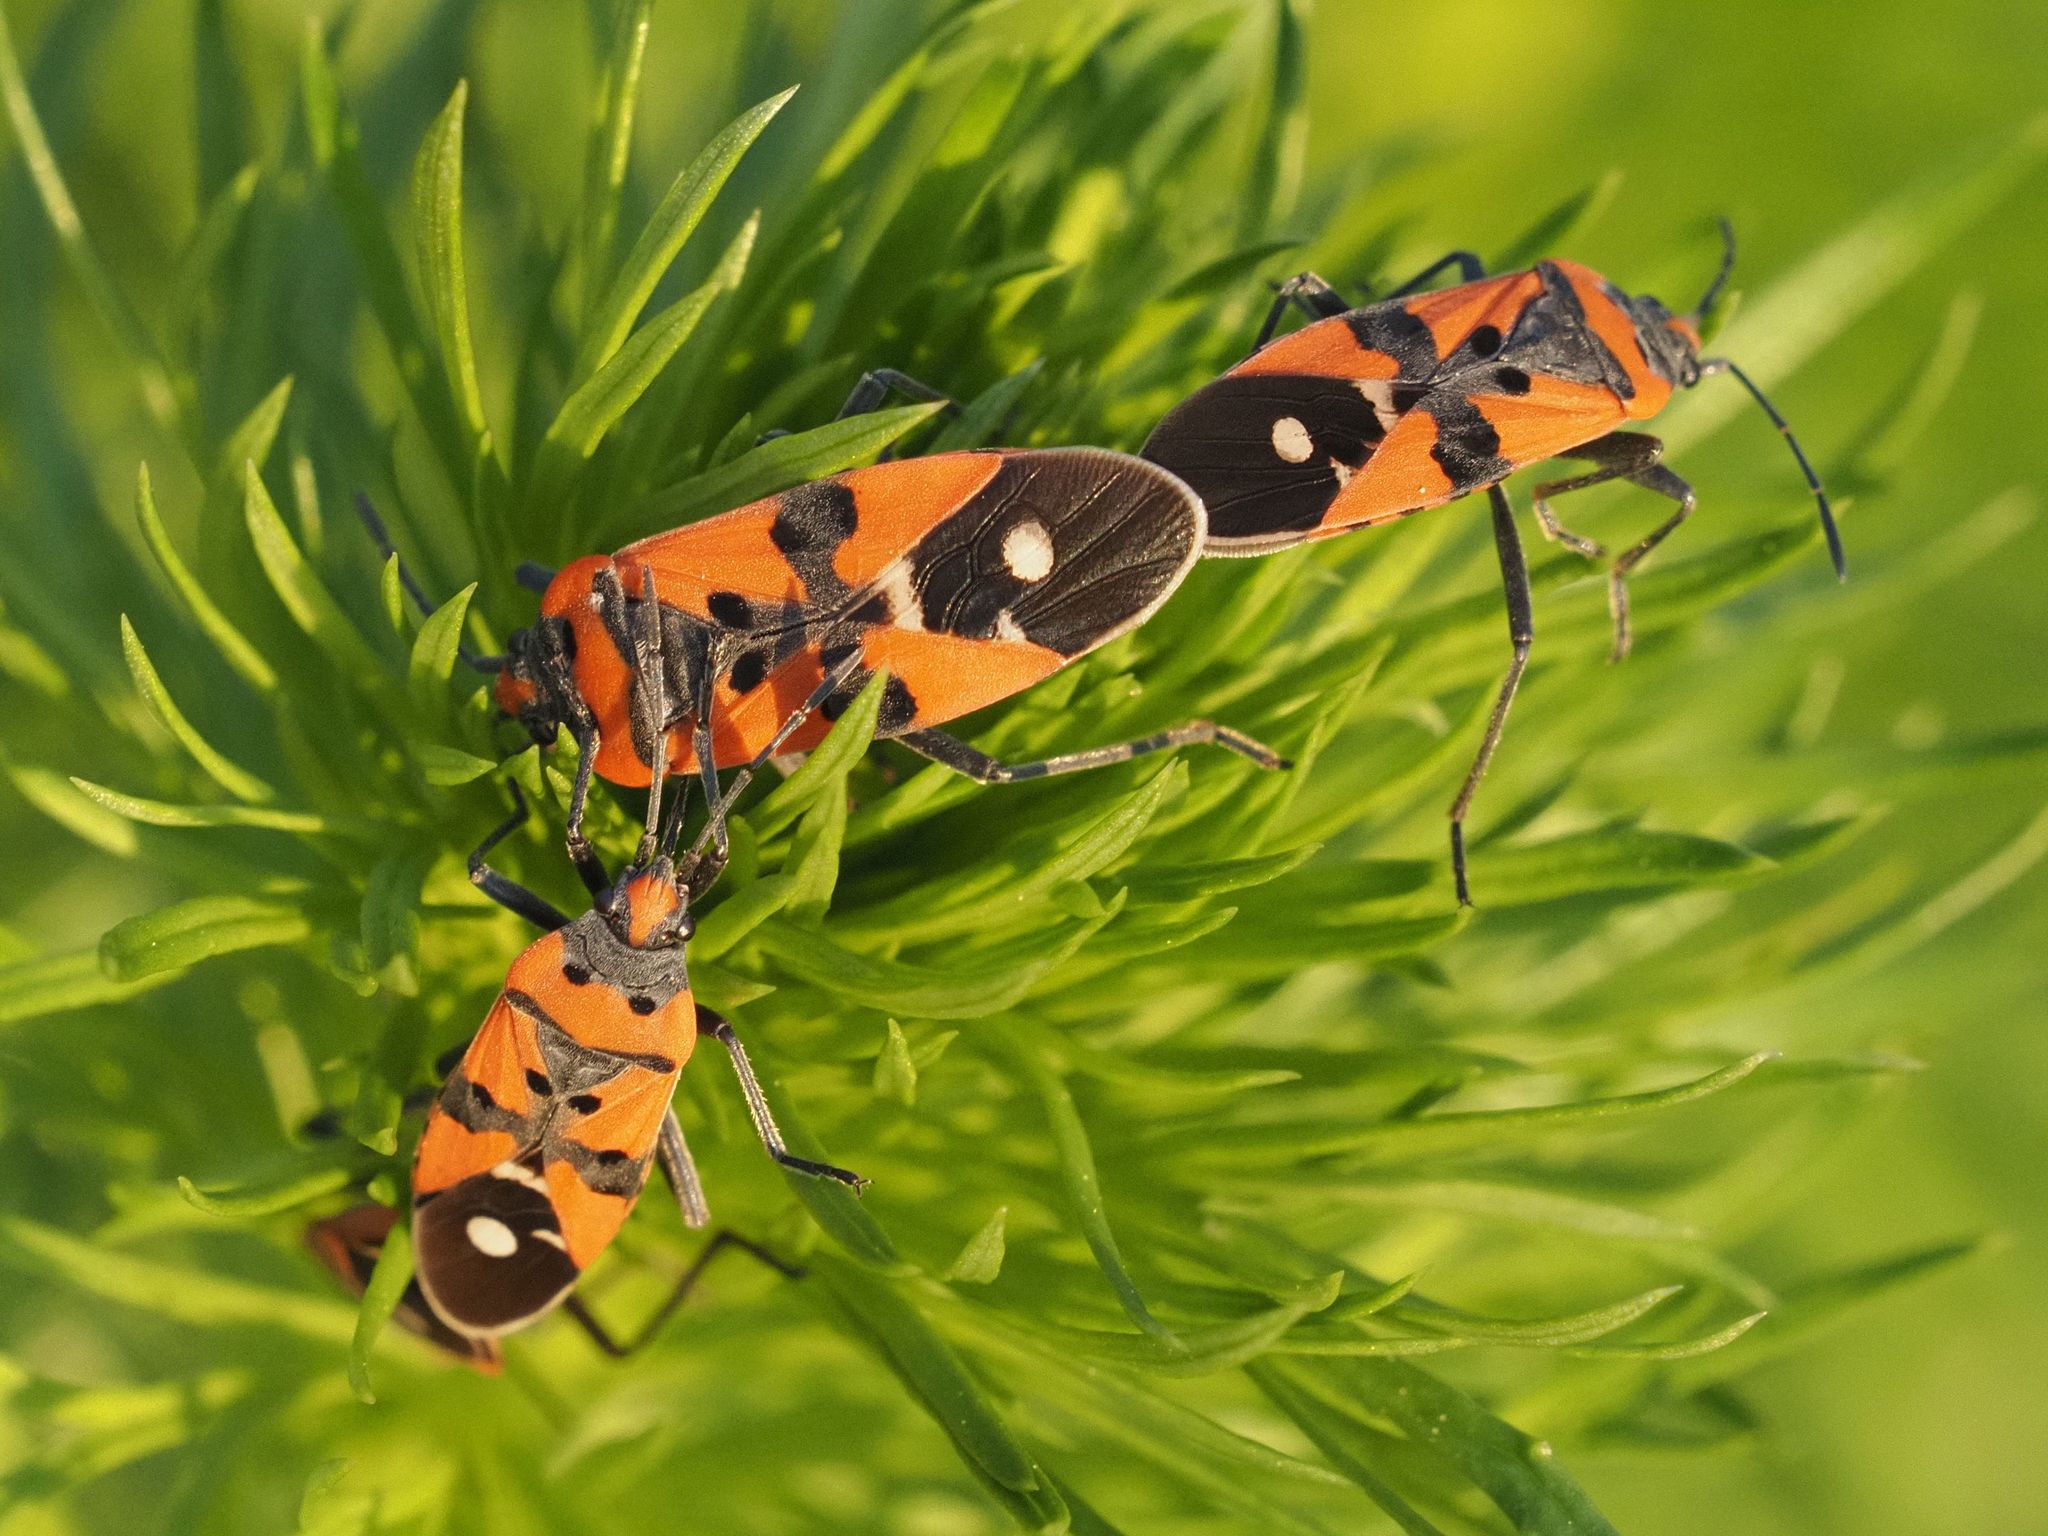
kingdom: Animalia
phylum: Arthropoda
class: Insecta
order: Hemiptera
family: Lygaeidae
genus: Lygaeus
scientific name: Lygaeus equestris
